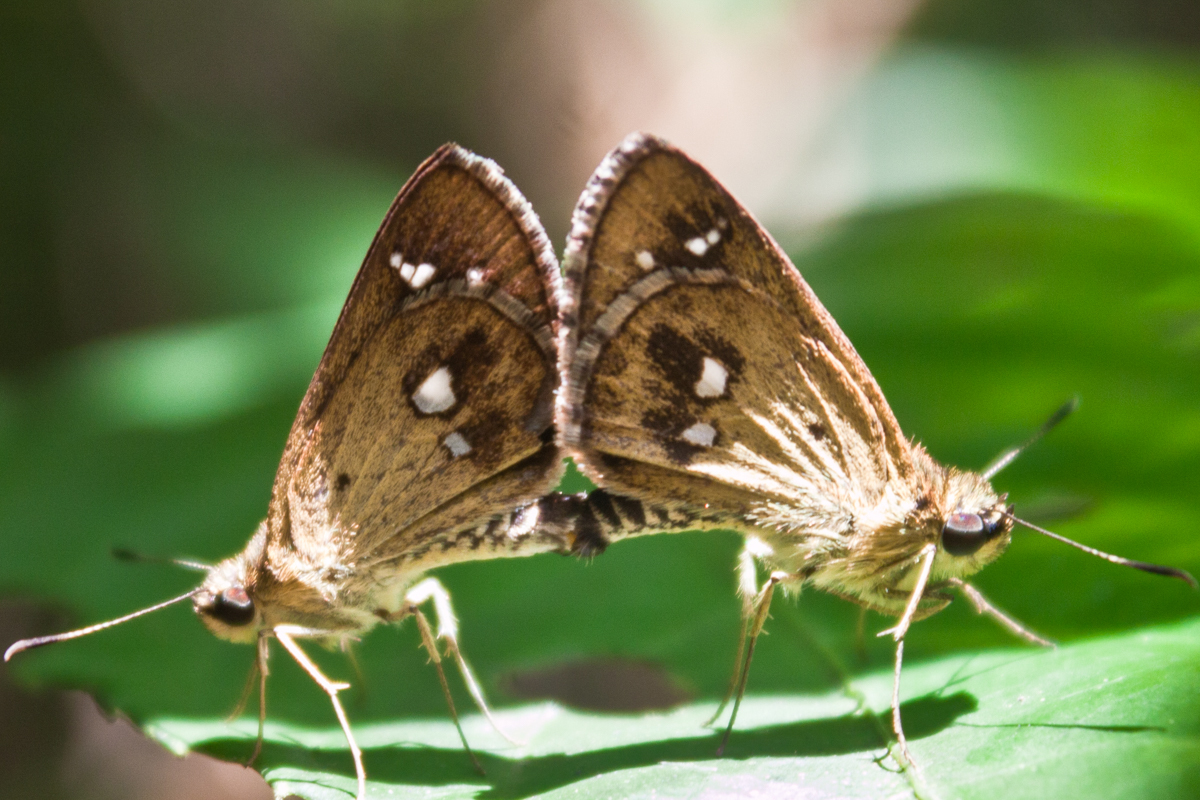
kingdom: Animalia
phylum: Arthropoda
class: Insecta
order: Lepidoptera
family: Hesperiidae
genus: Scobura
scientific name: Scobura isota
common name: Swinhoe's forest bob
